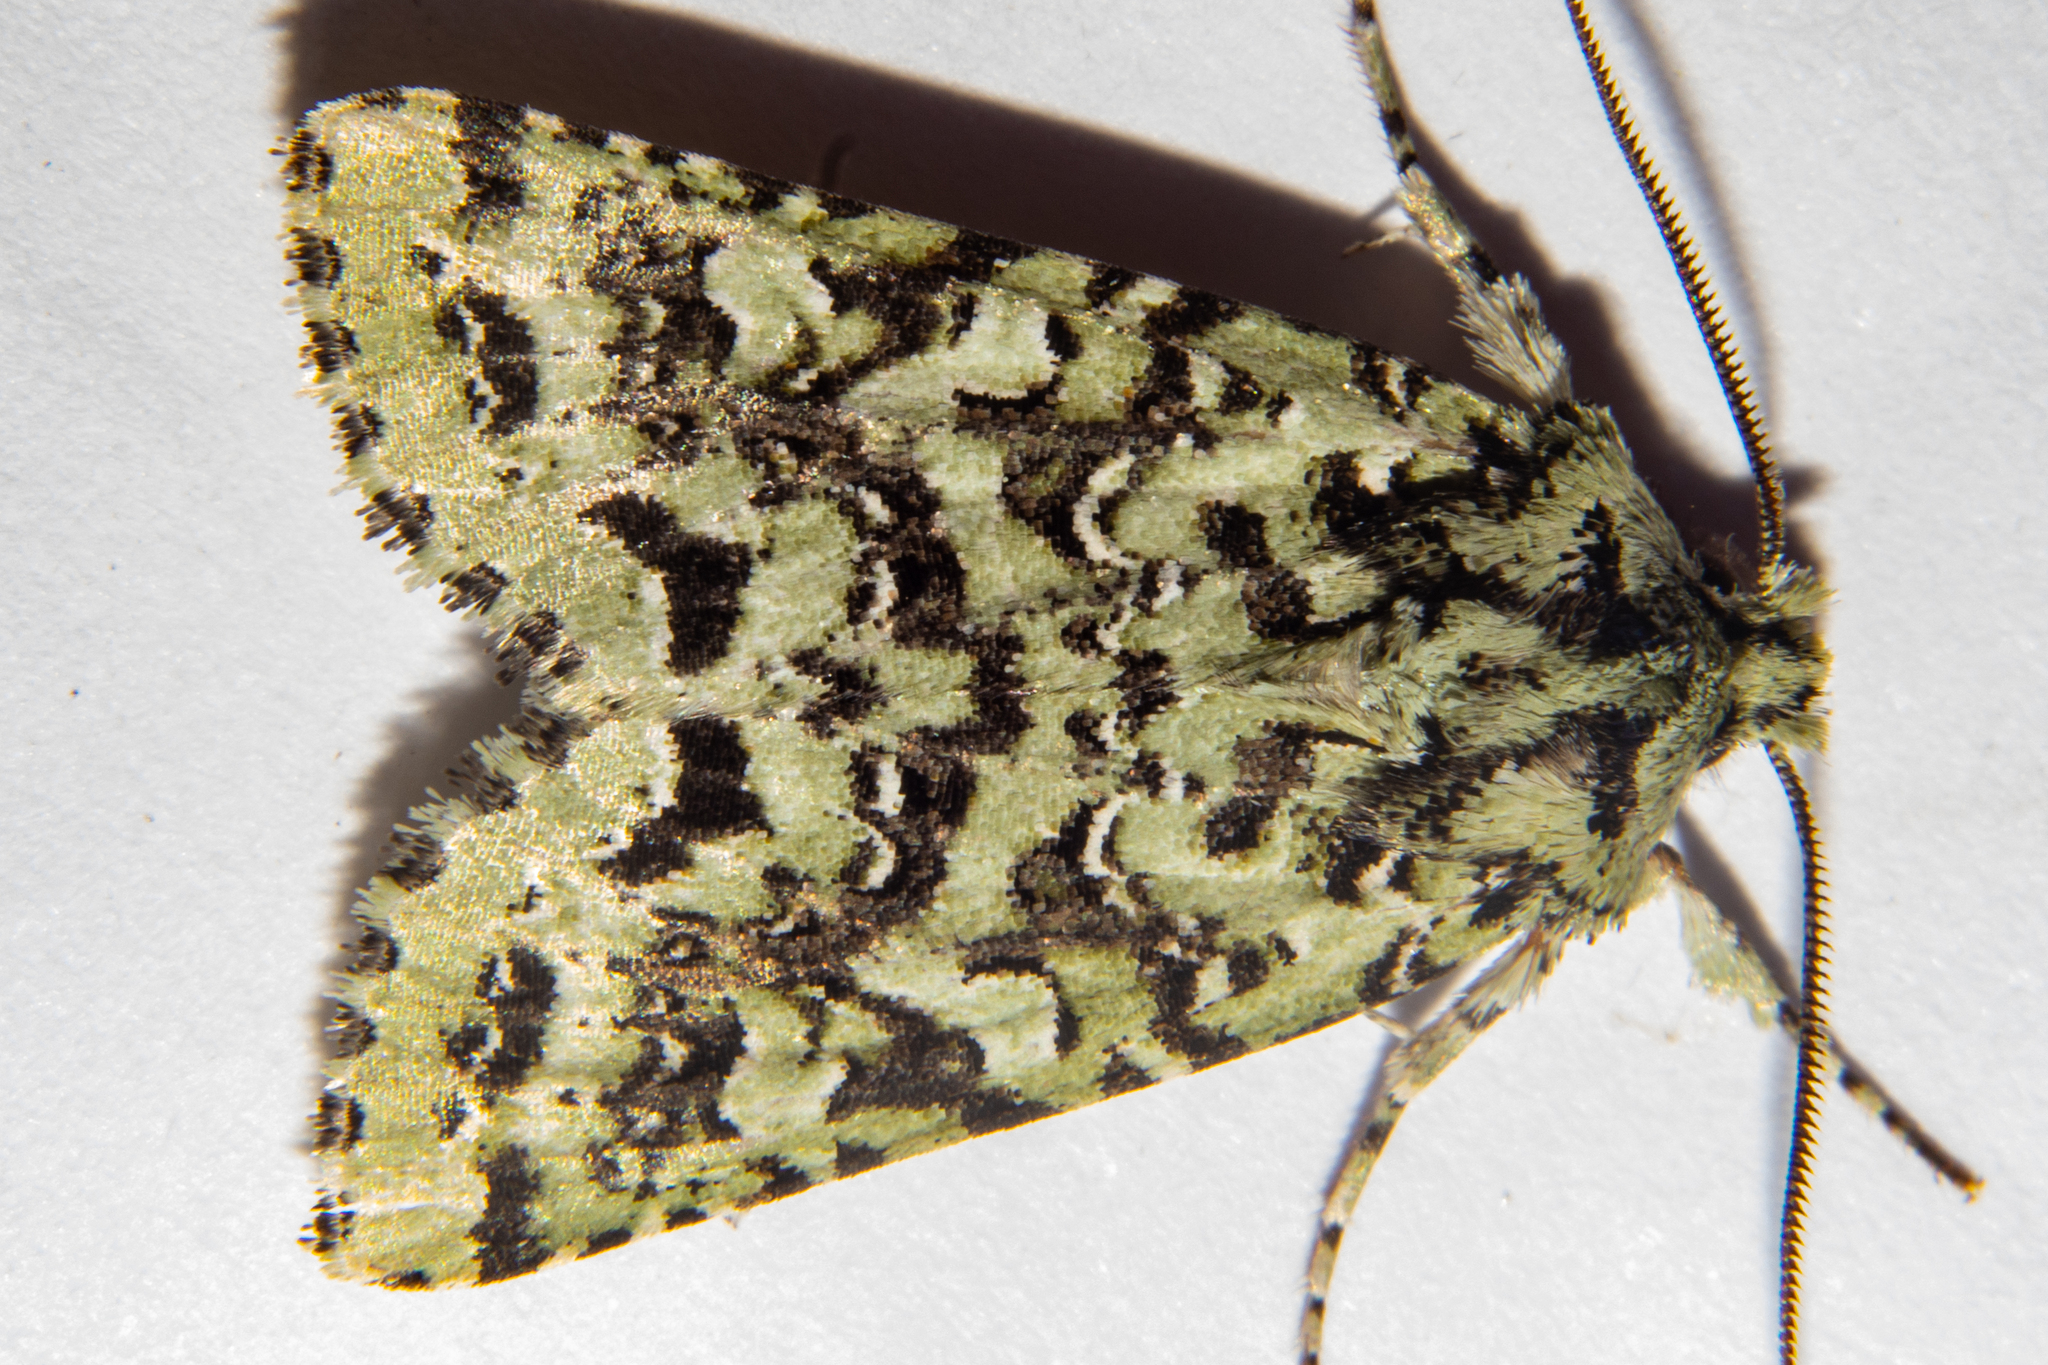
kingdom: Animalia
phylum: Arthropoda
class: Insecta
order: Lepidoptera
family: Noctuidae
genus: Meterana
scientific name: Meterana
